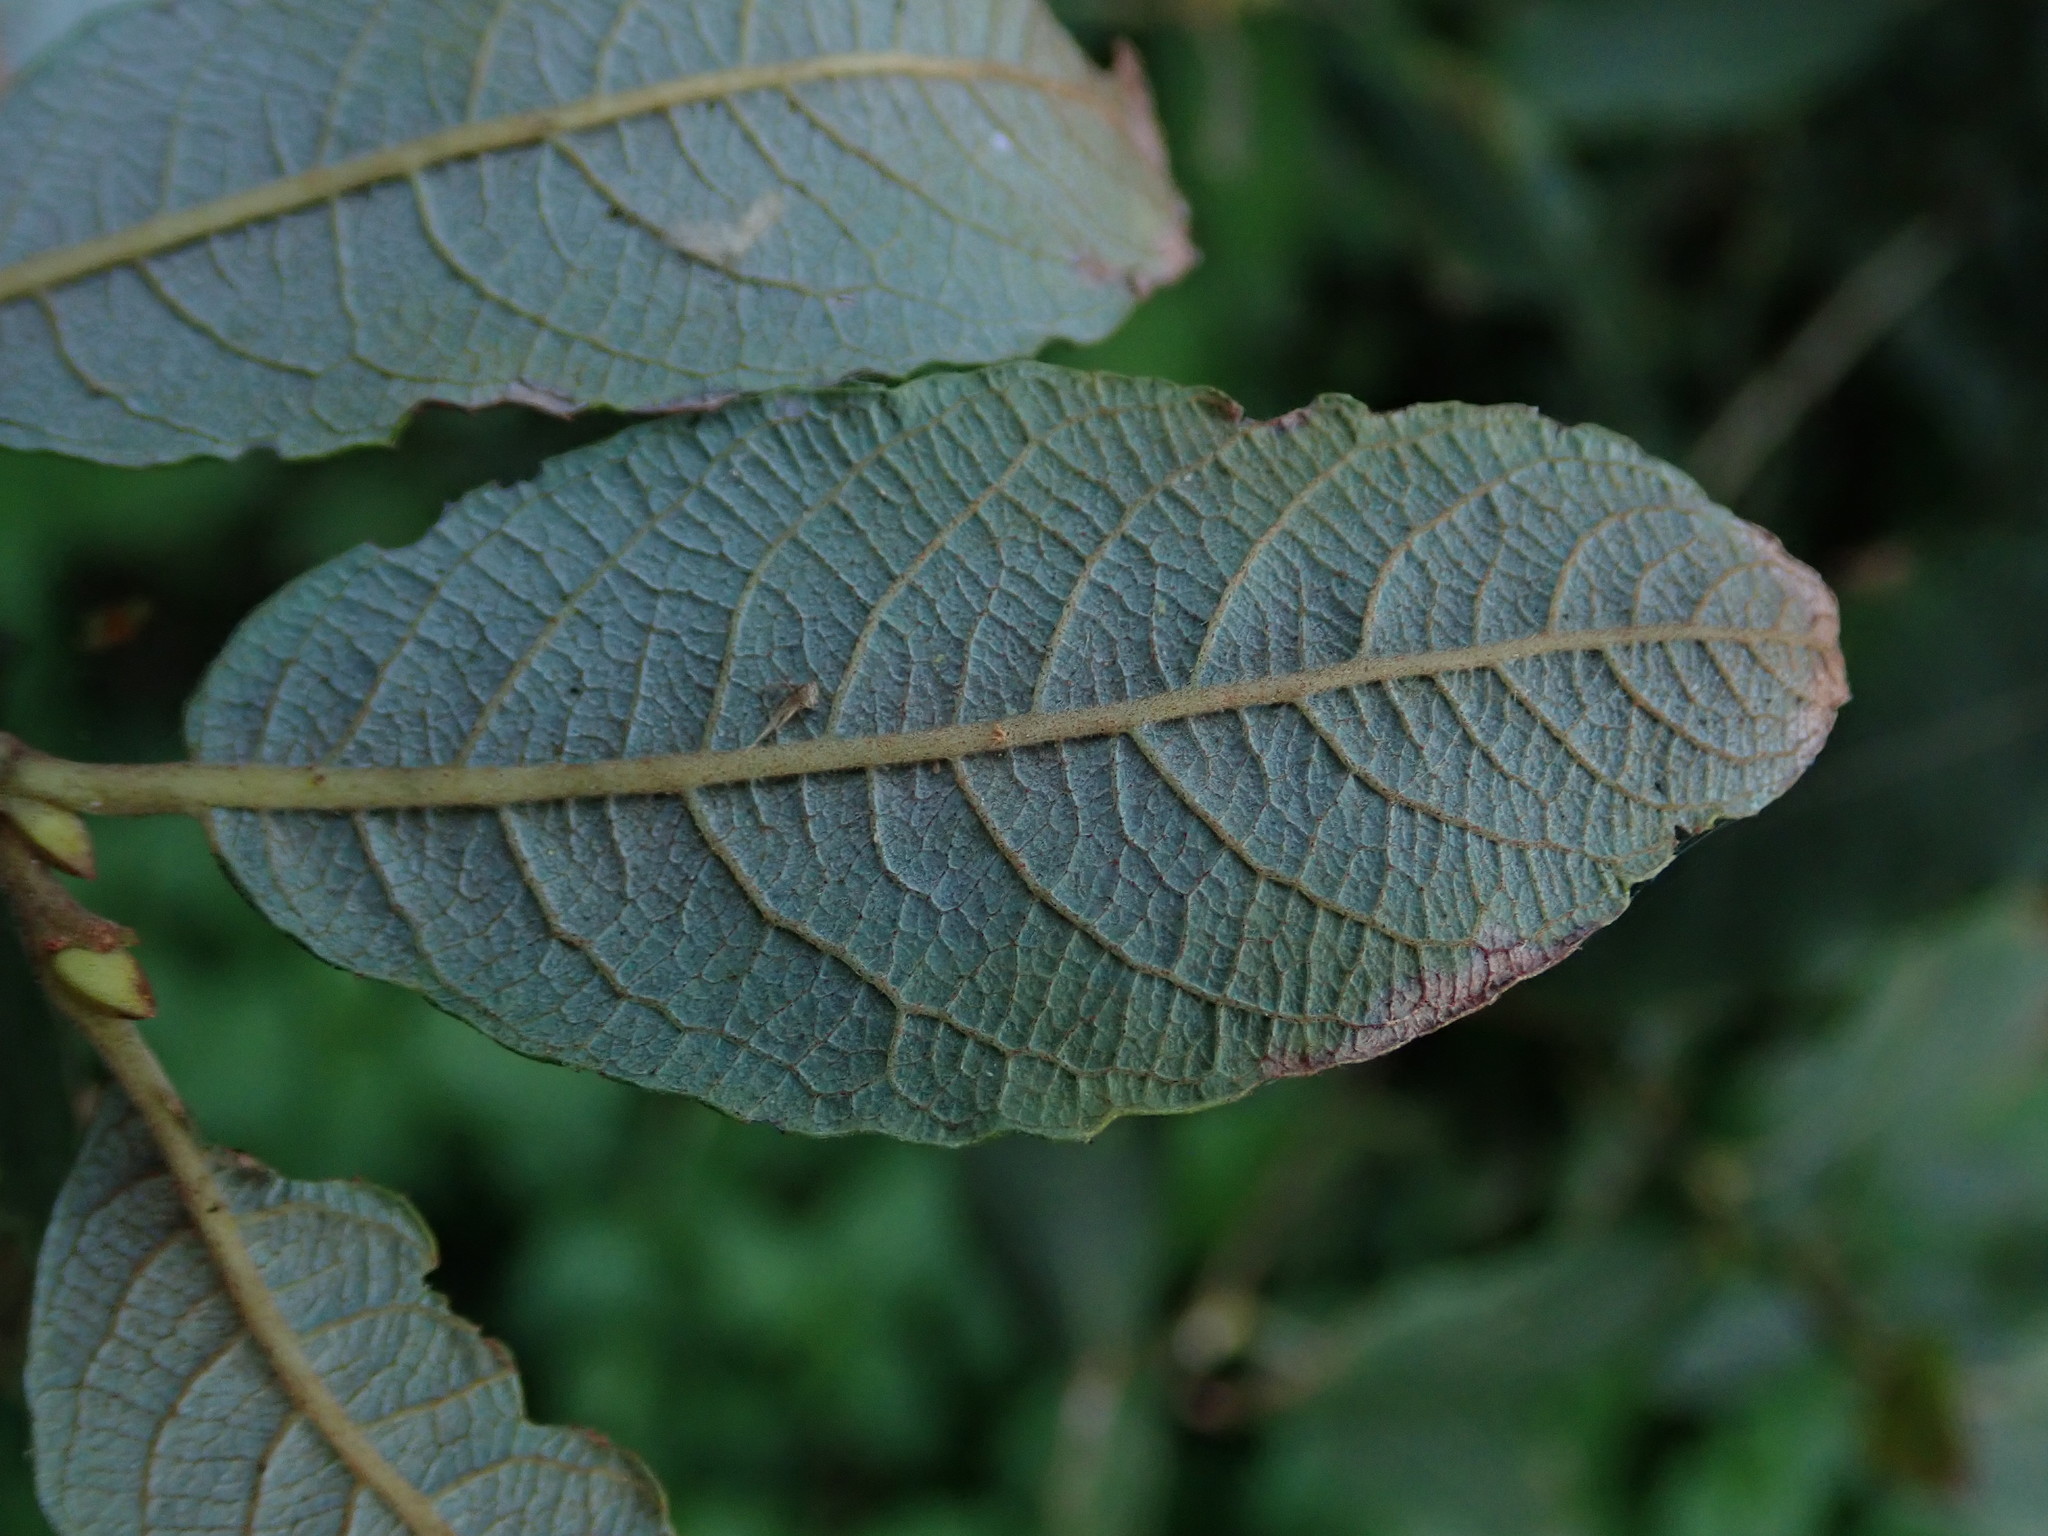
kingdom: Plantae
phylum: Tracheophyta
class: Magnoliopsida
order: Malpighiales
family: Salicaceae
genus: Salix
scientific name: Salix cinerea
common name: Common sallow
